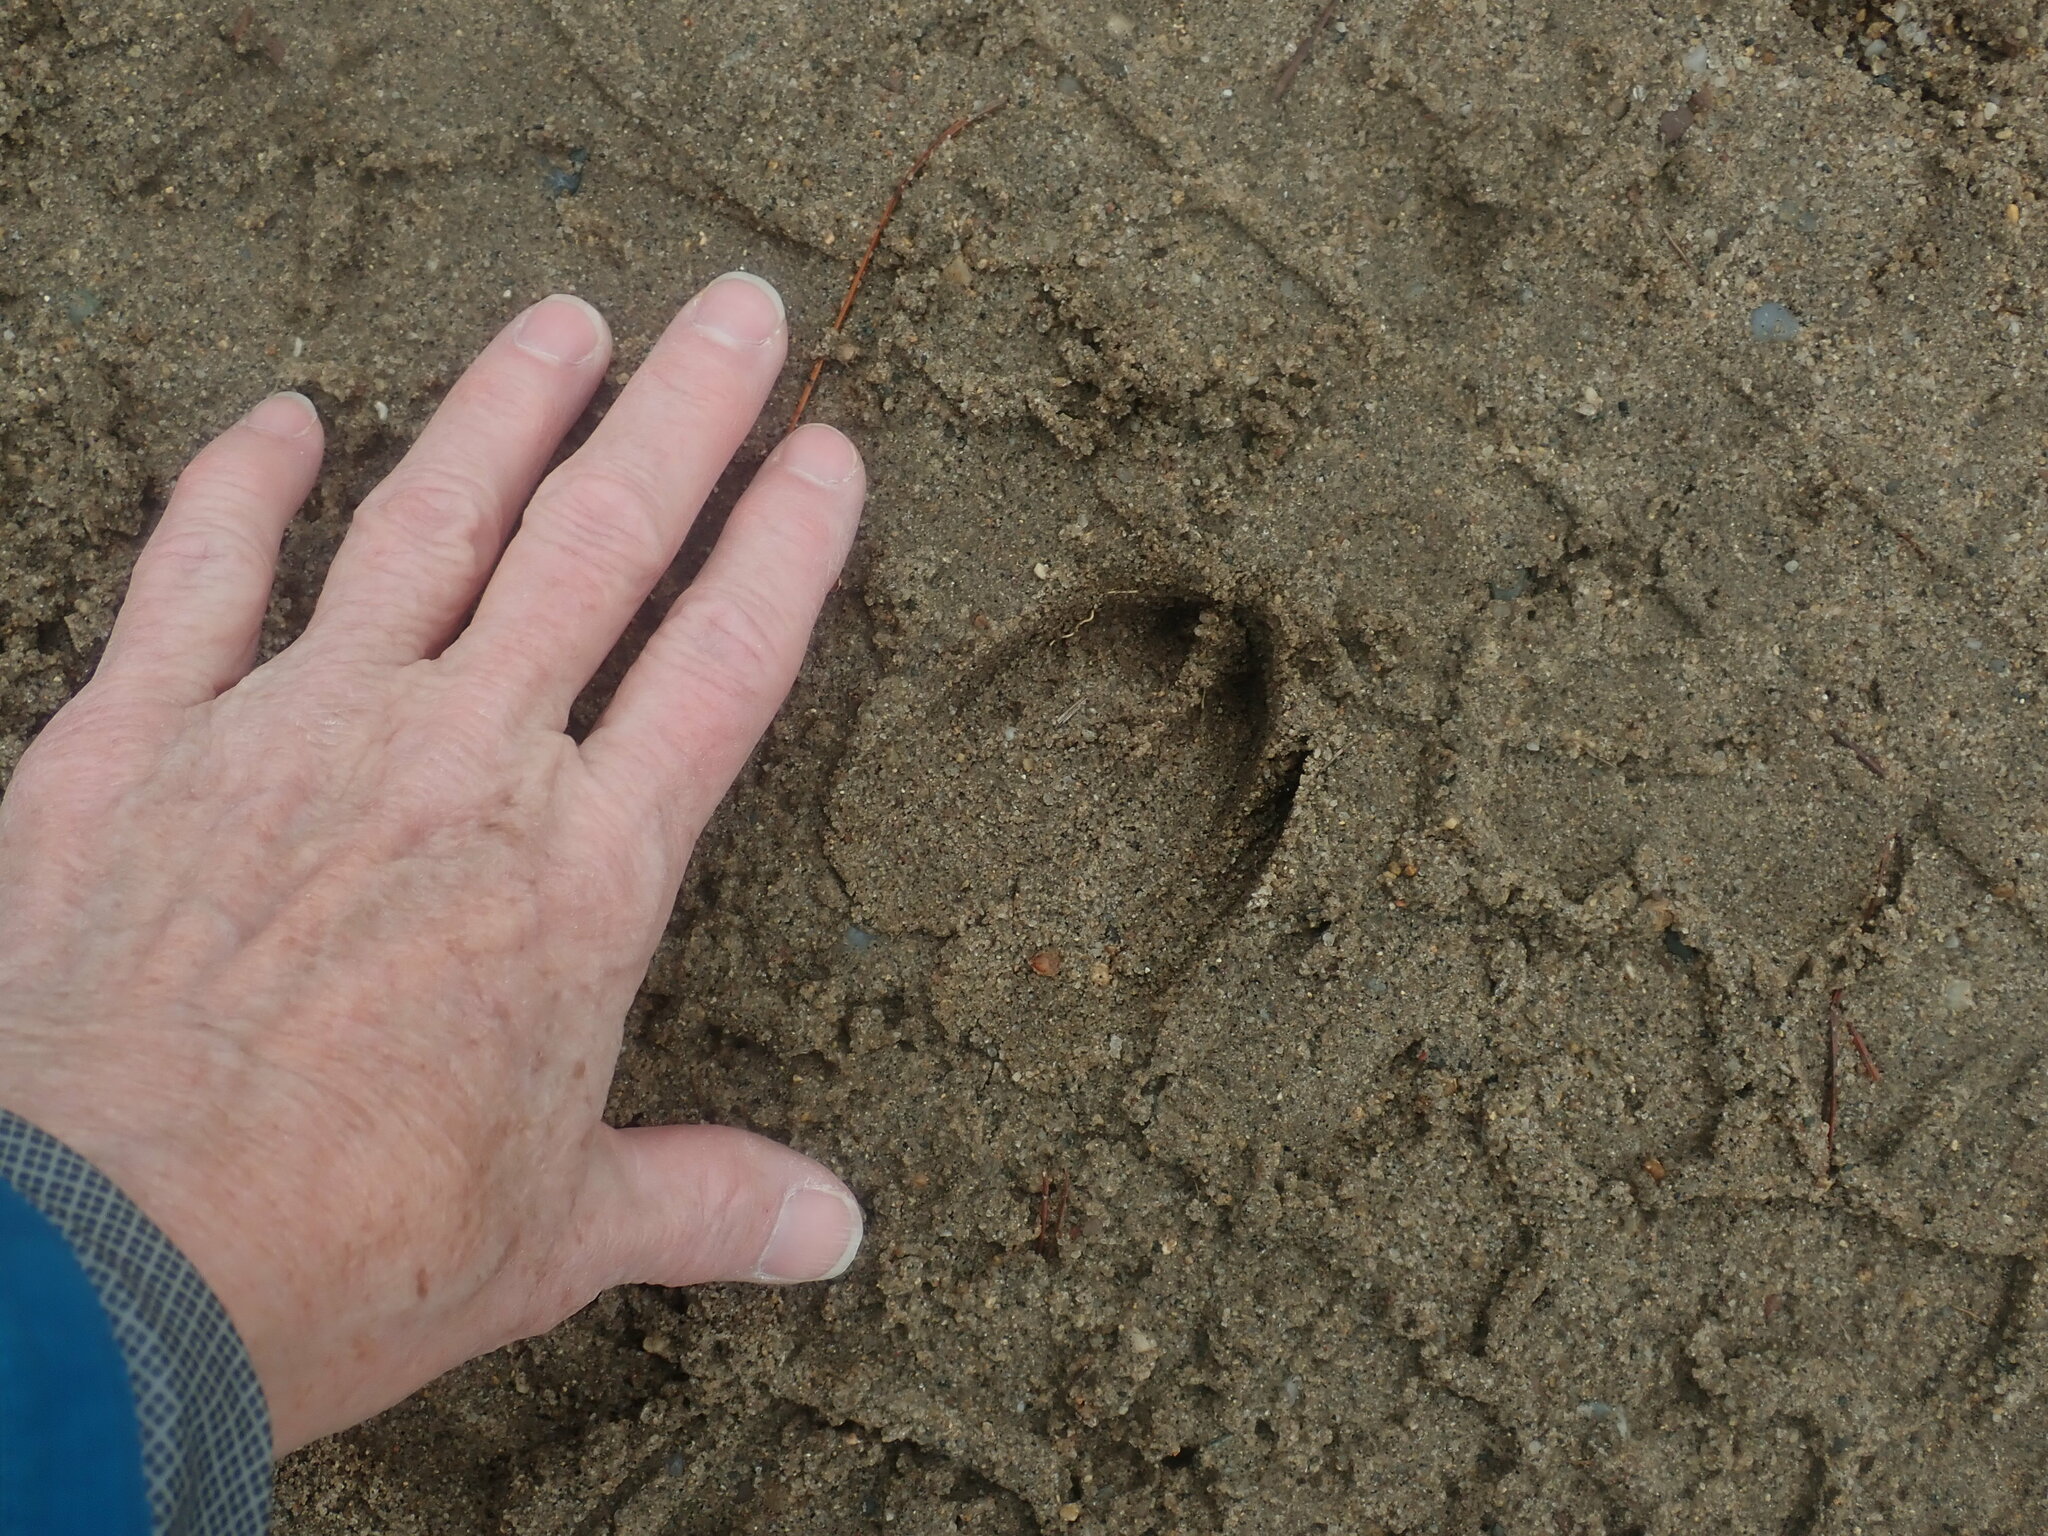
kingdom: Animalia
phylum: Chordata
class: Mammalia
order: Artiodactyla
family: Cervidae
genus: Odocoileus
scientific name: Odocoileus virginianus
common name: White-tailed deer
